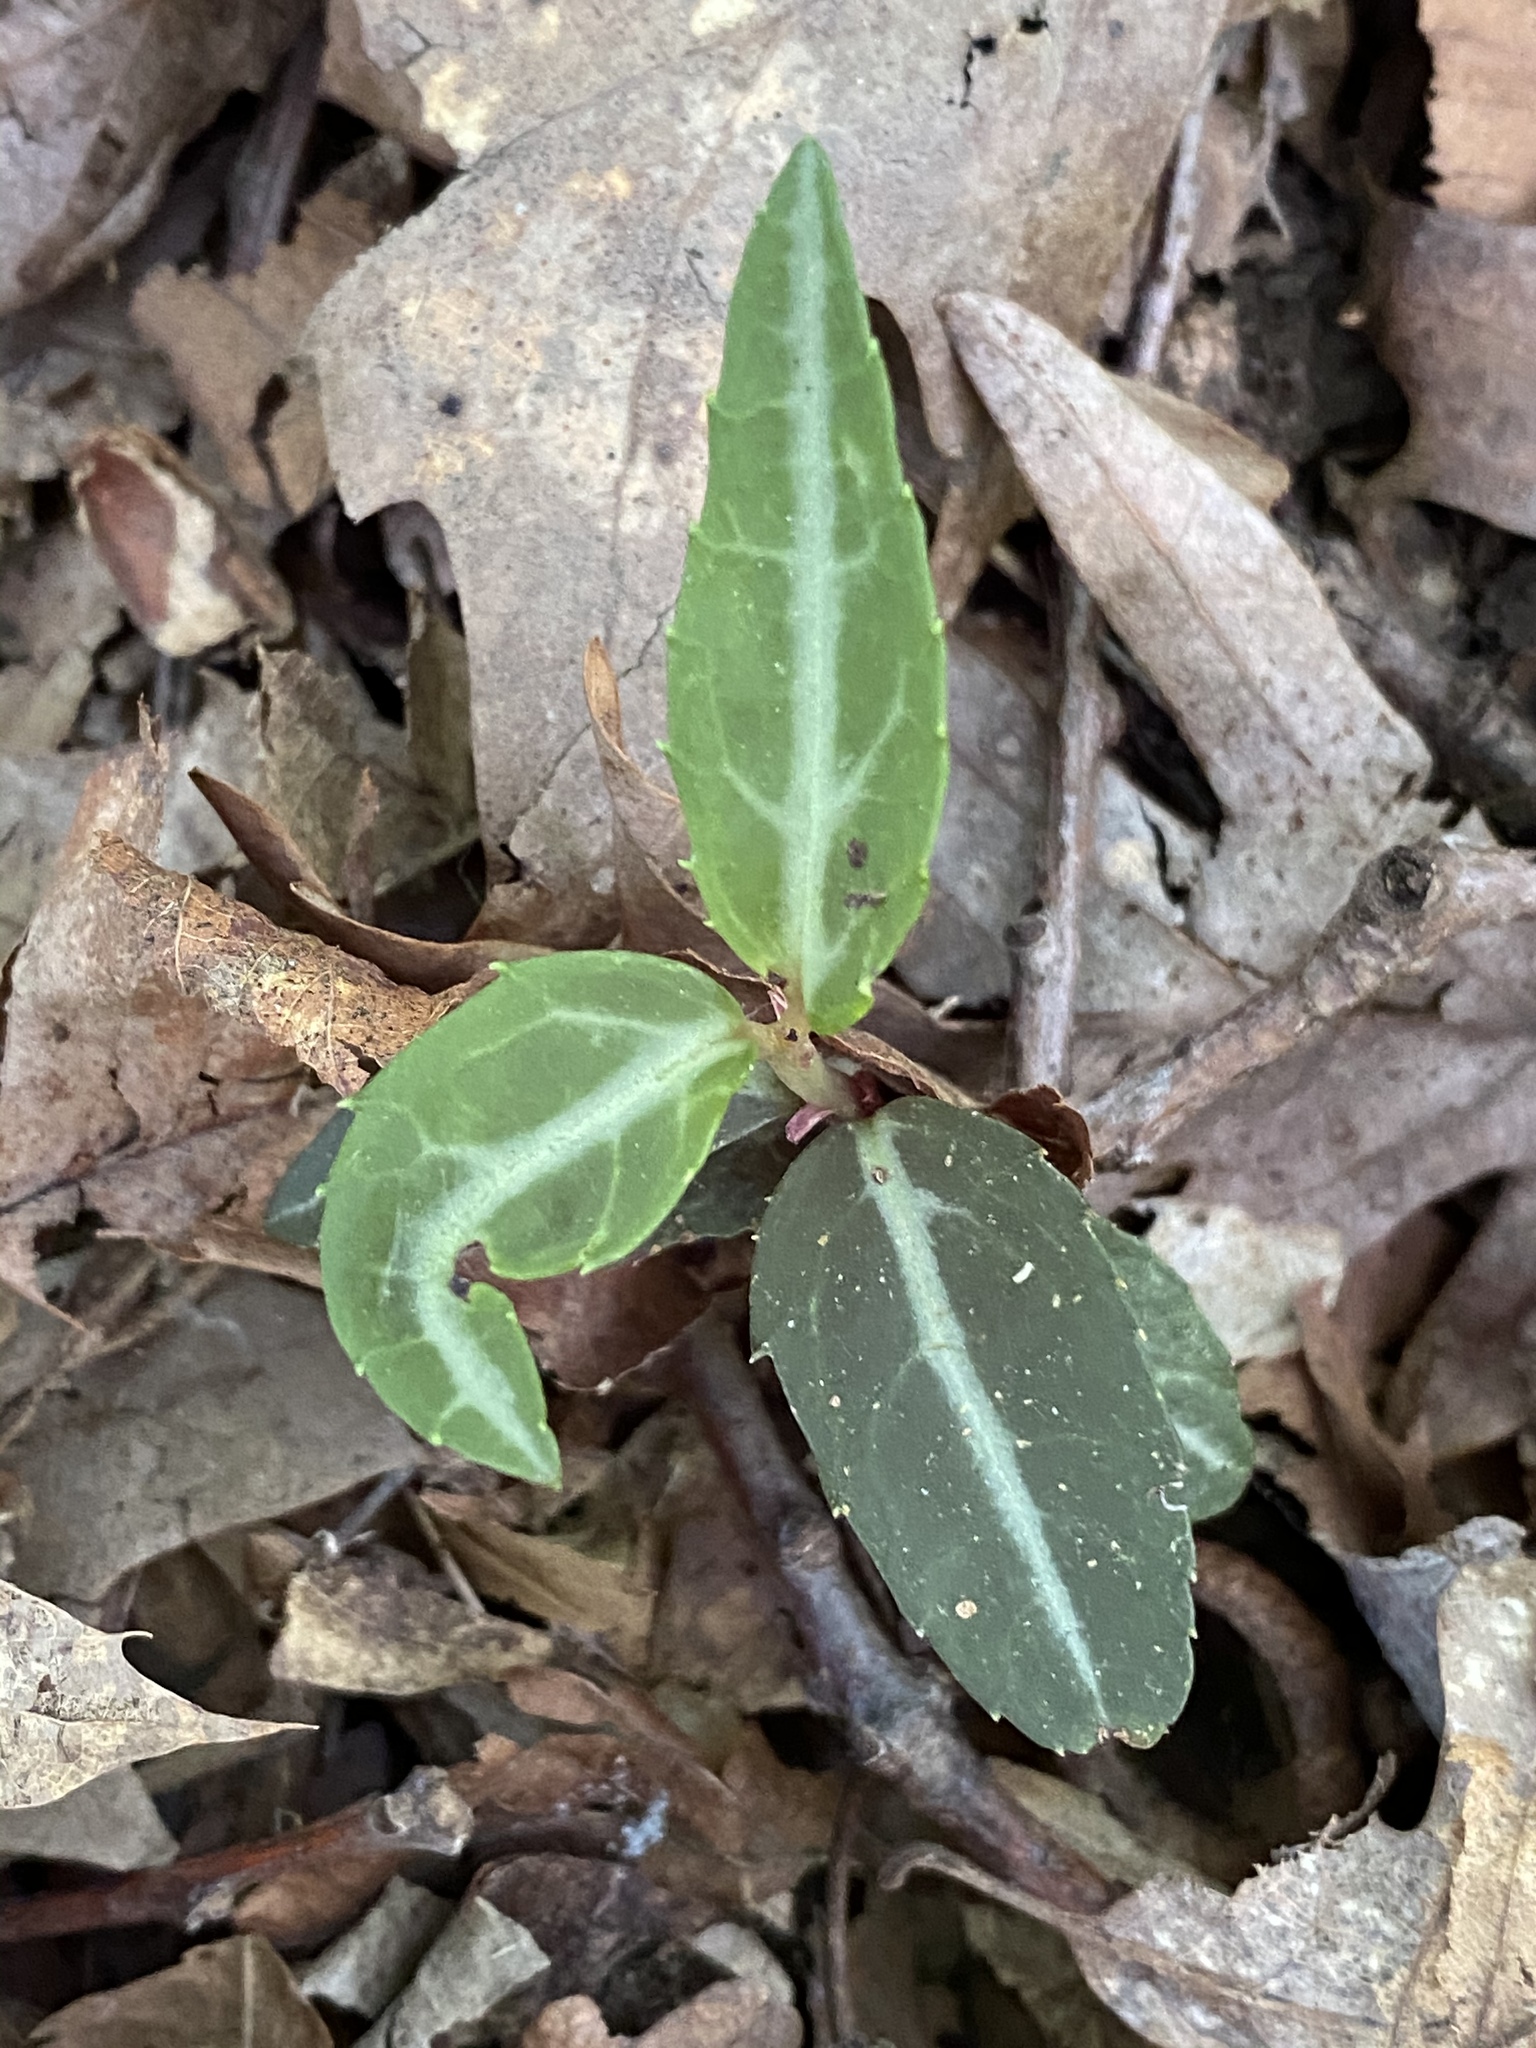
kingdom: Plantae
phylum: Tracheophyta
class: Magnoliopsida
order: Ericales
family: Ericaceae
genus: Chimaphila
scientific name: Chimaphila maculata
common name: Spotted pipsissewa
